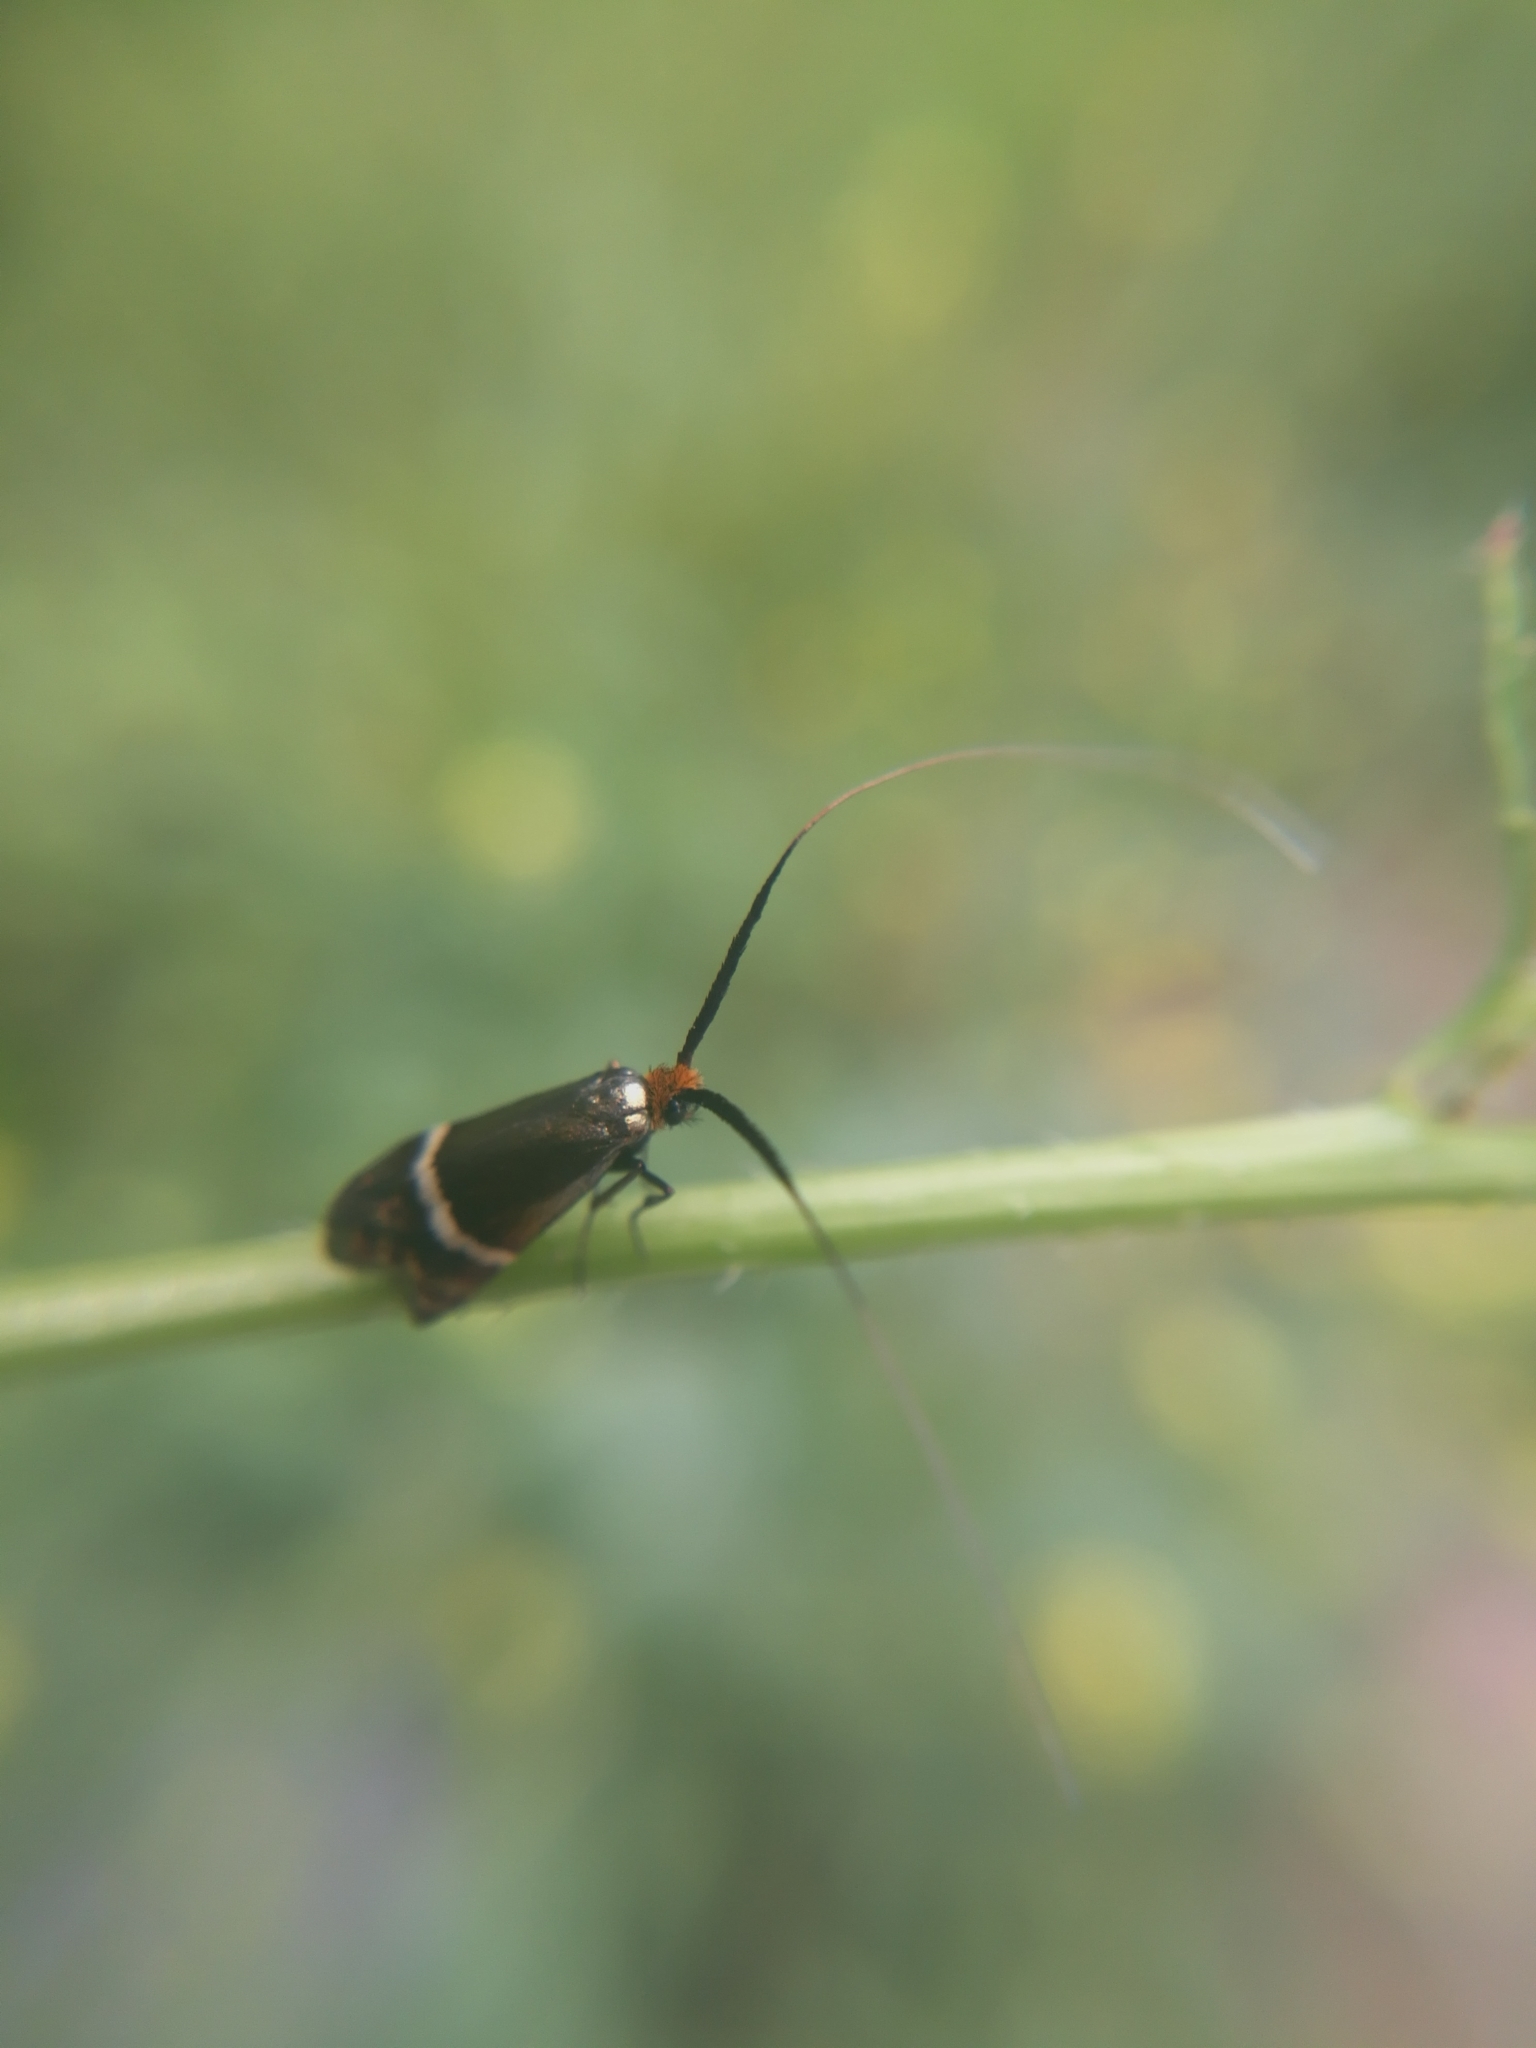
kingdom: Animalia
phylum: Arthropoda
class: Insecta
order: Lepidoptera
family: Adelidae
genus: Adela
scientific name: Adela australis
